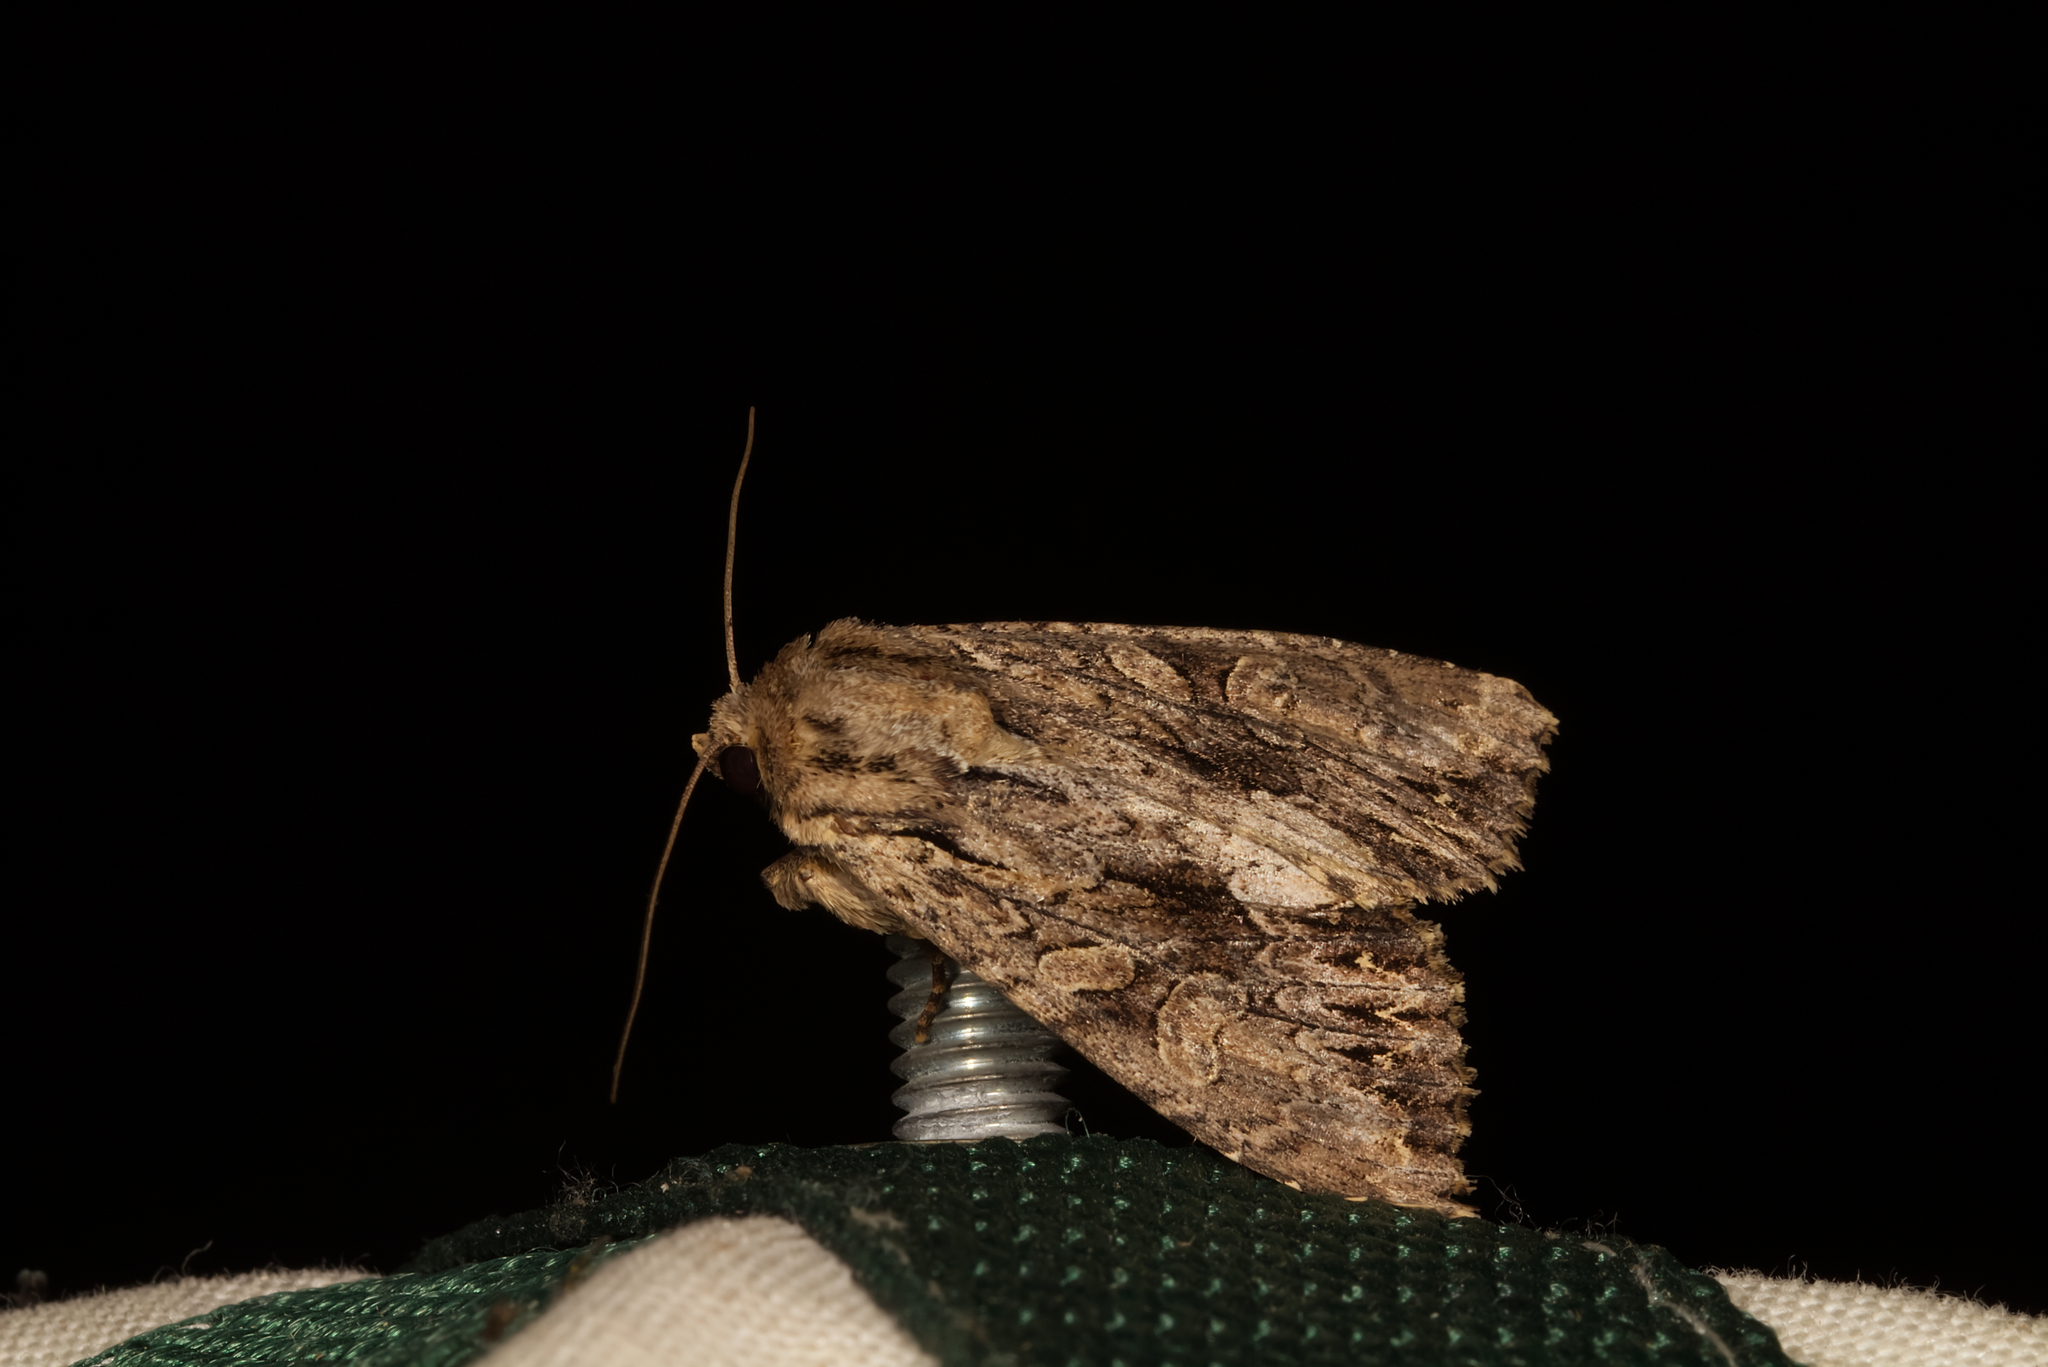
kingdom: Animalia
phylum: Arthropoda
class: Insecta
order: Lepidoptera
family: Noctuidae
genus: Apamea
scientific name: Apamea monoglypha
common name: Dark arches
